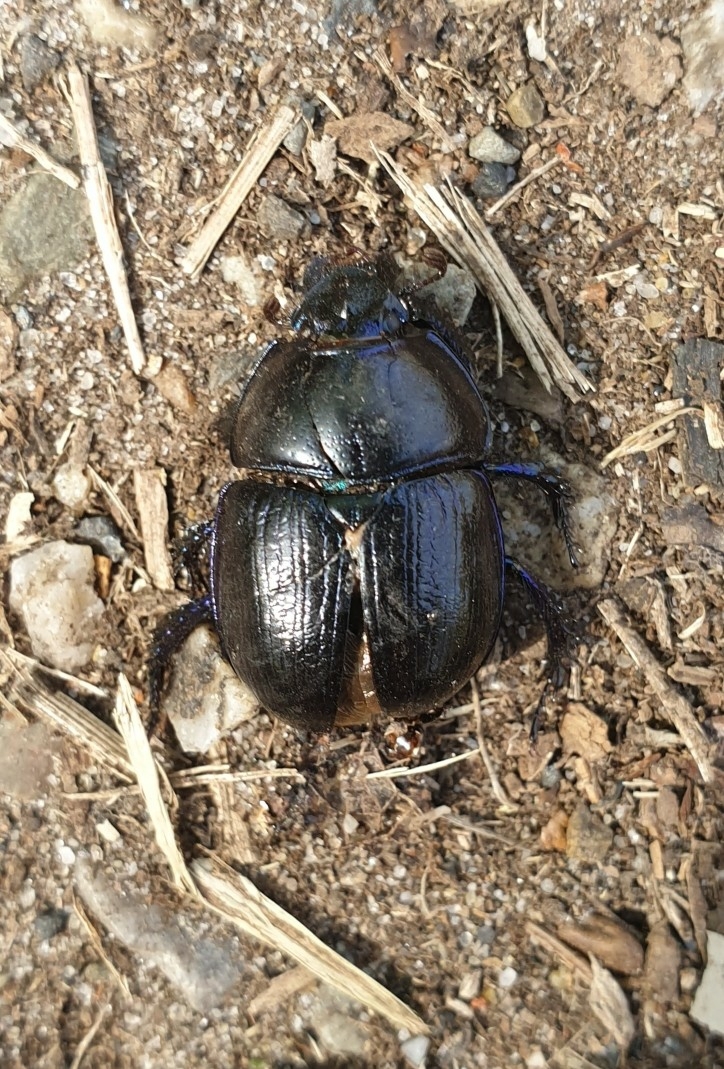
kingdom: Animalia
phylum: Arthropoda
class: Insecta
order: Coleoptera
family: Geotrupidae
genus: Anoplotrupes
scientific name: Anoplotrupes stercorosus
